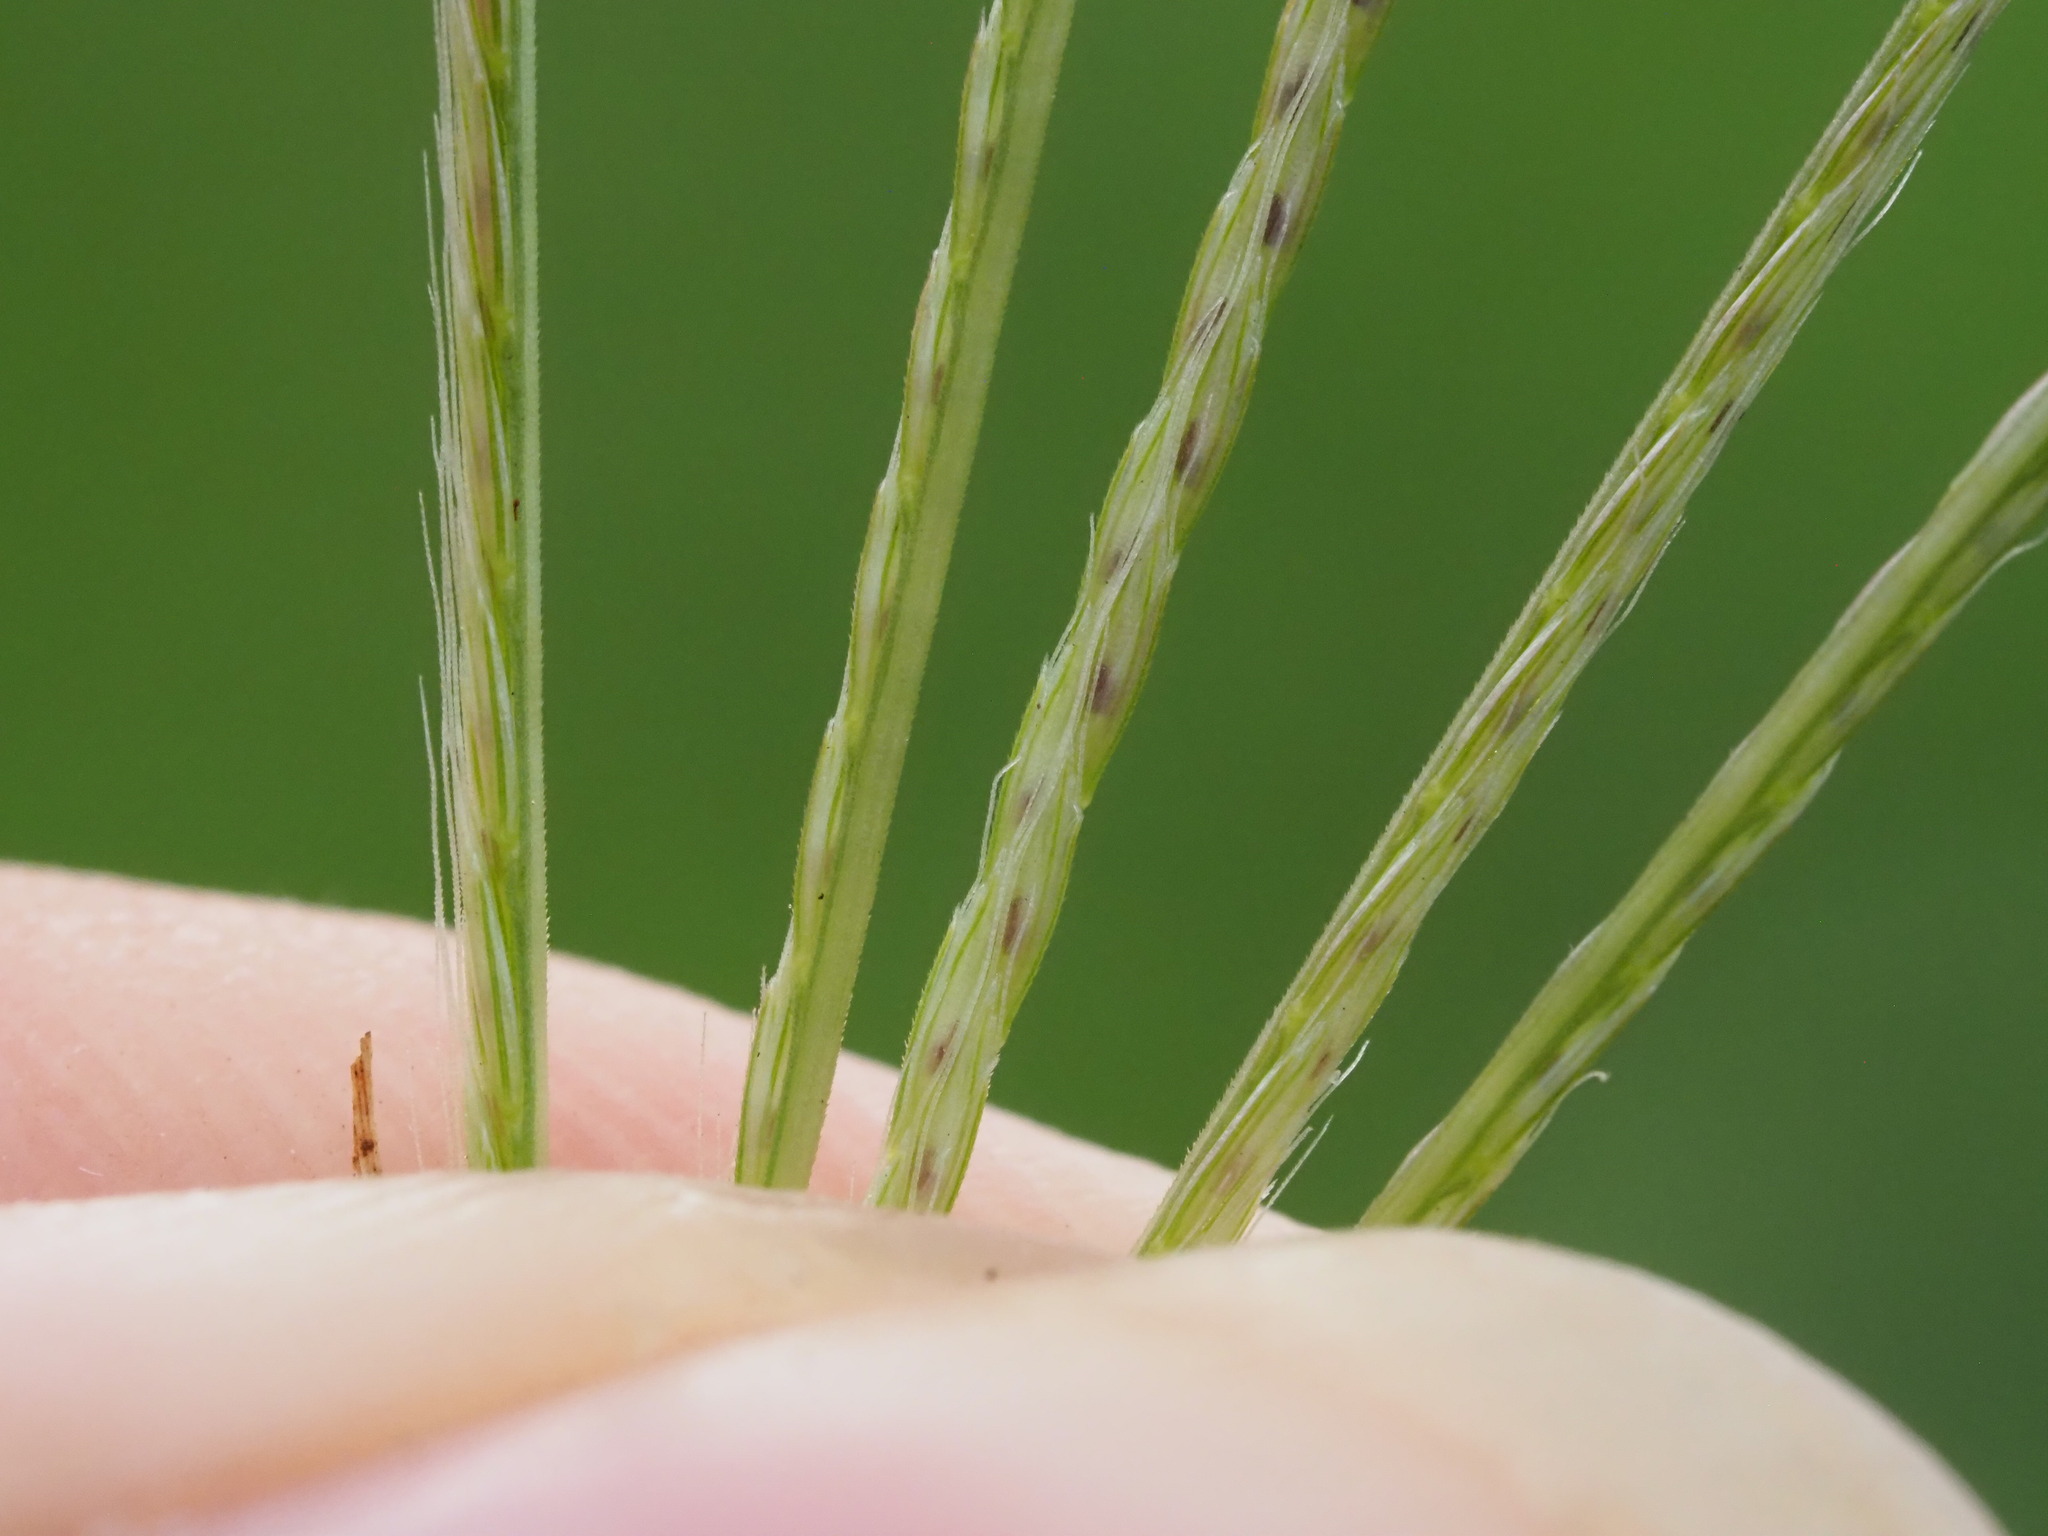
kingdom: Plantae
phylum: Tracheophyta
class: Liliopsida
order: Poales
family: Poaceae
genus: Chloris
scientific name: Chloris divaricata
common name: Spreading windmill grass
